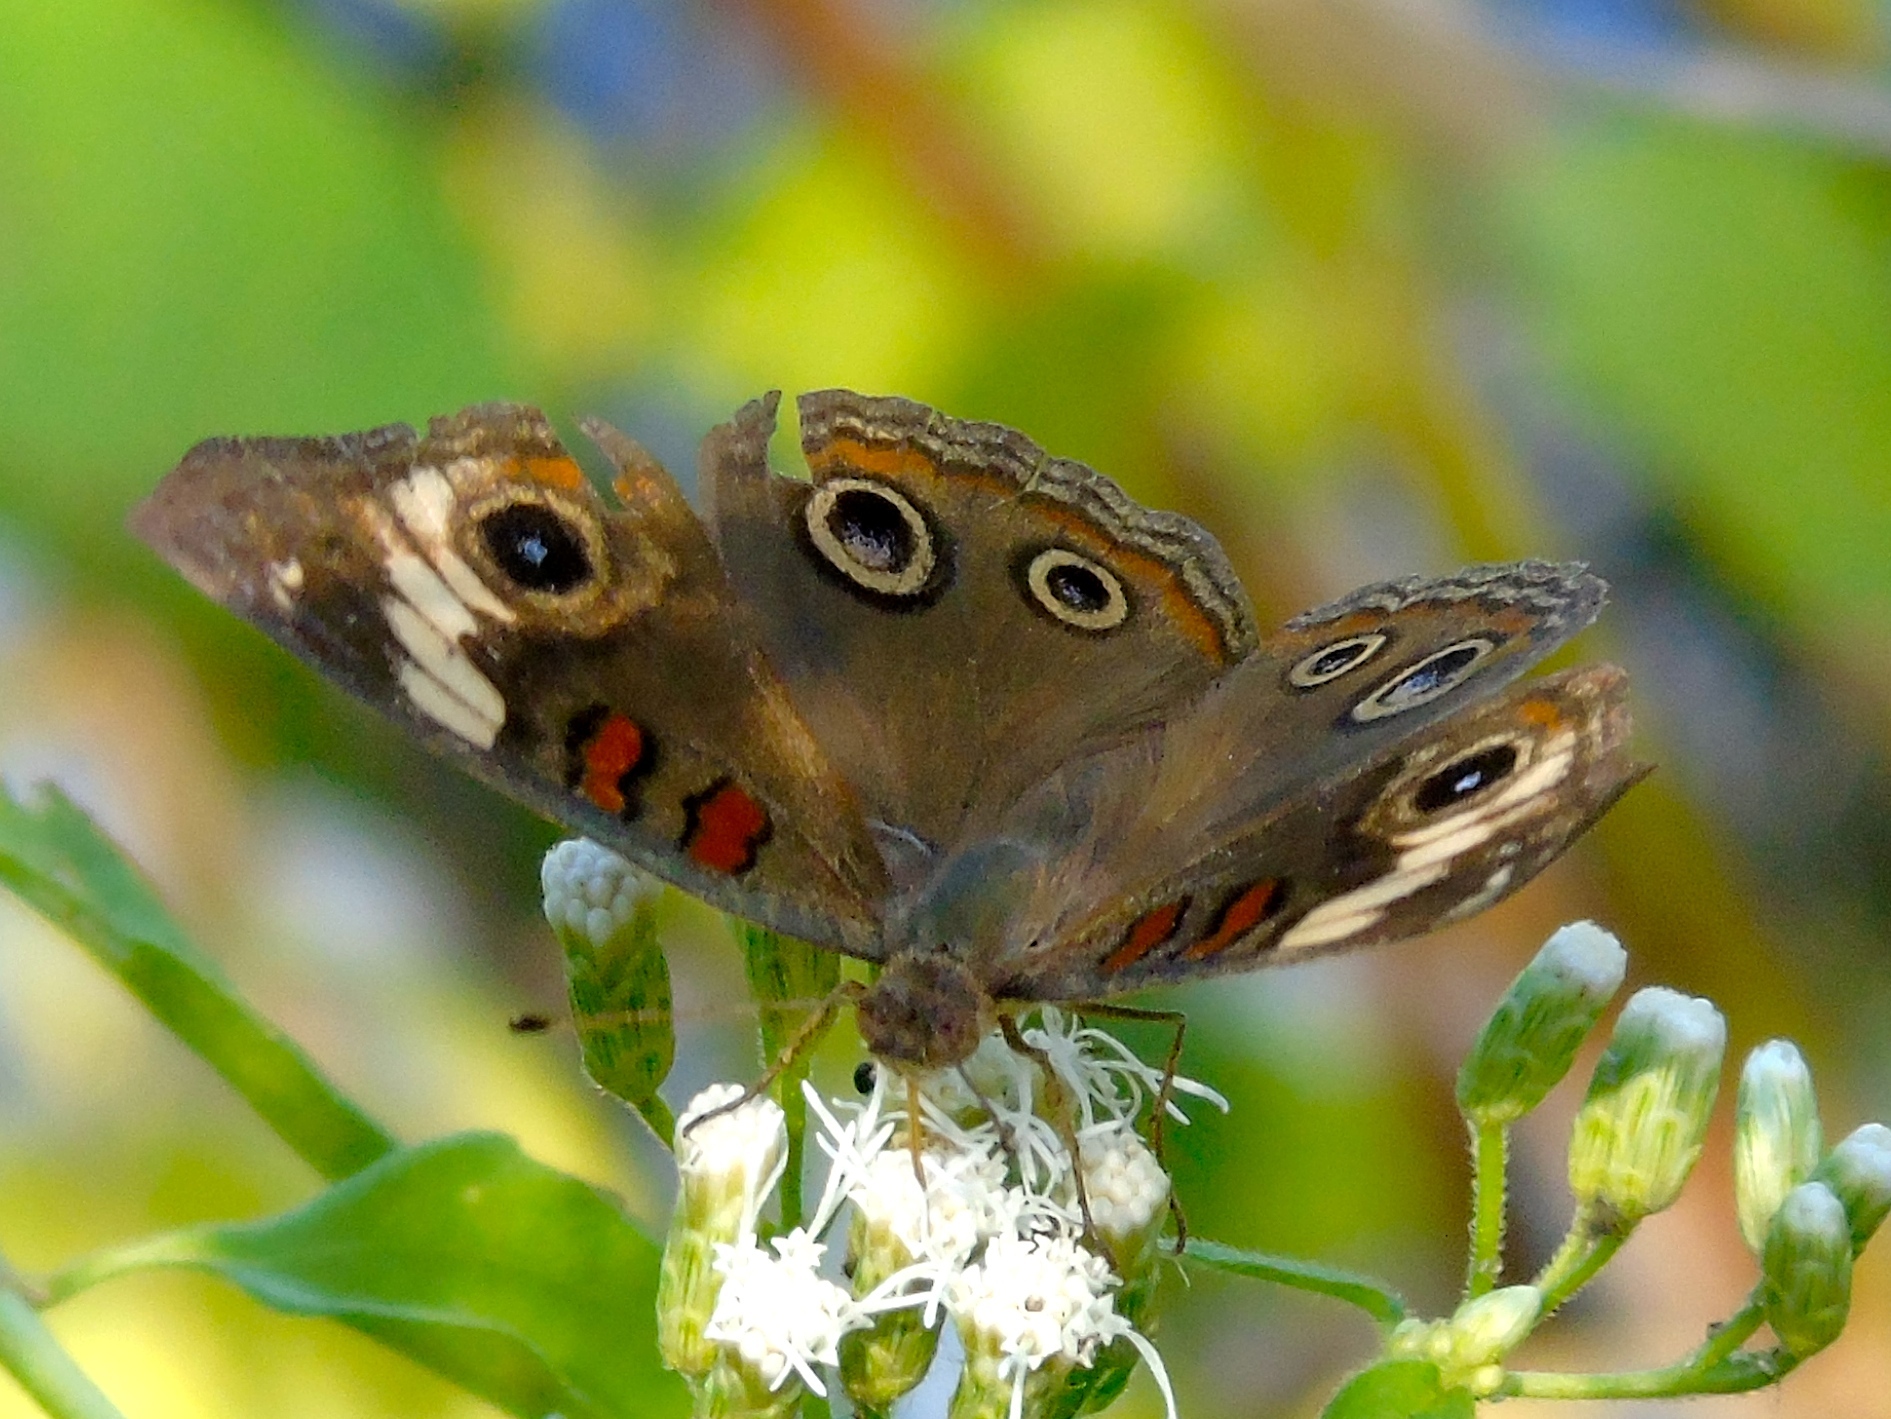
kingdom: Animalia
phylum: Arthropoda
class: Insecta
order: Lepidoptera
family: Nymphalidae
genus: Junonia
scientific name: Junonia
